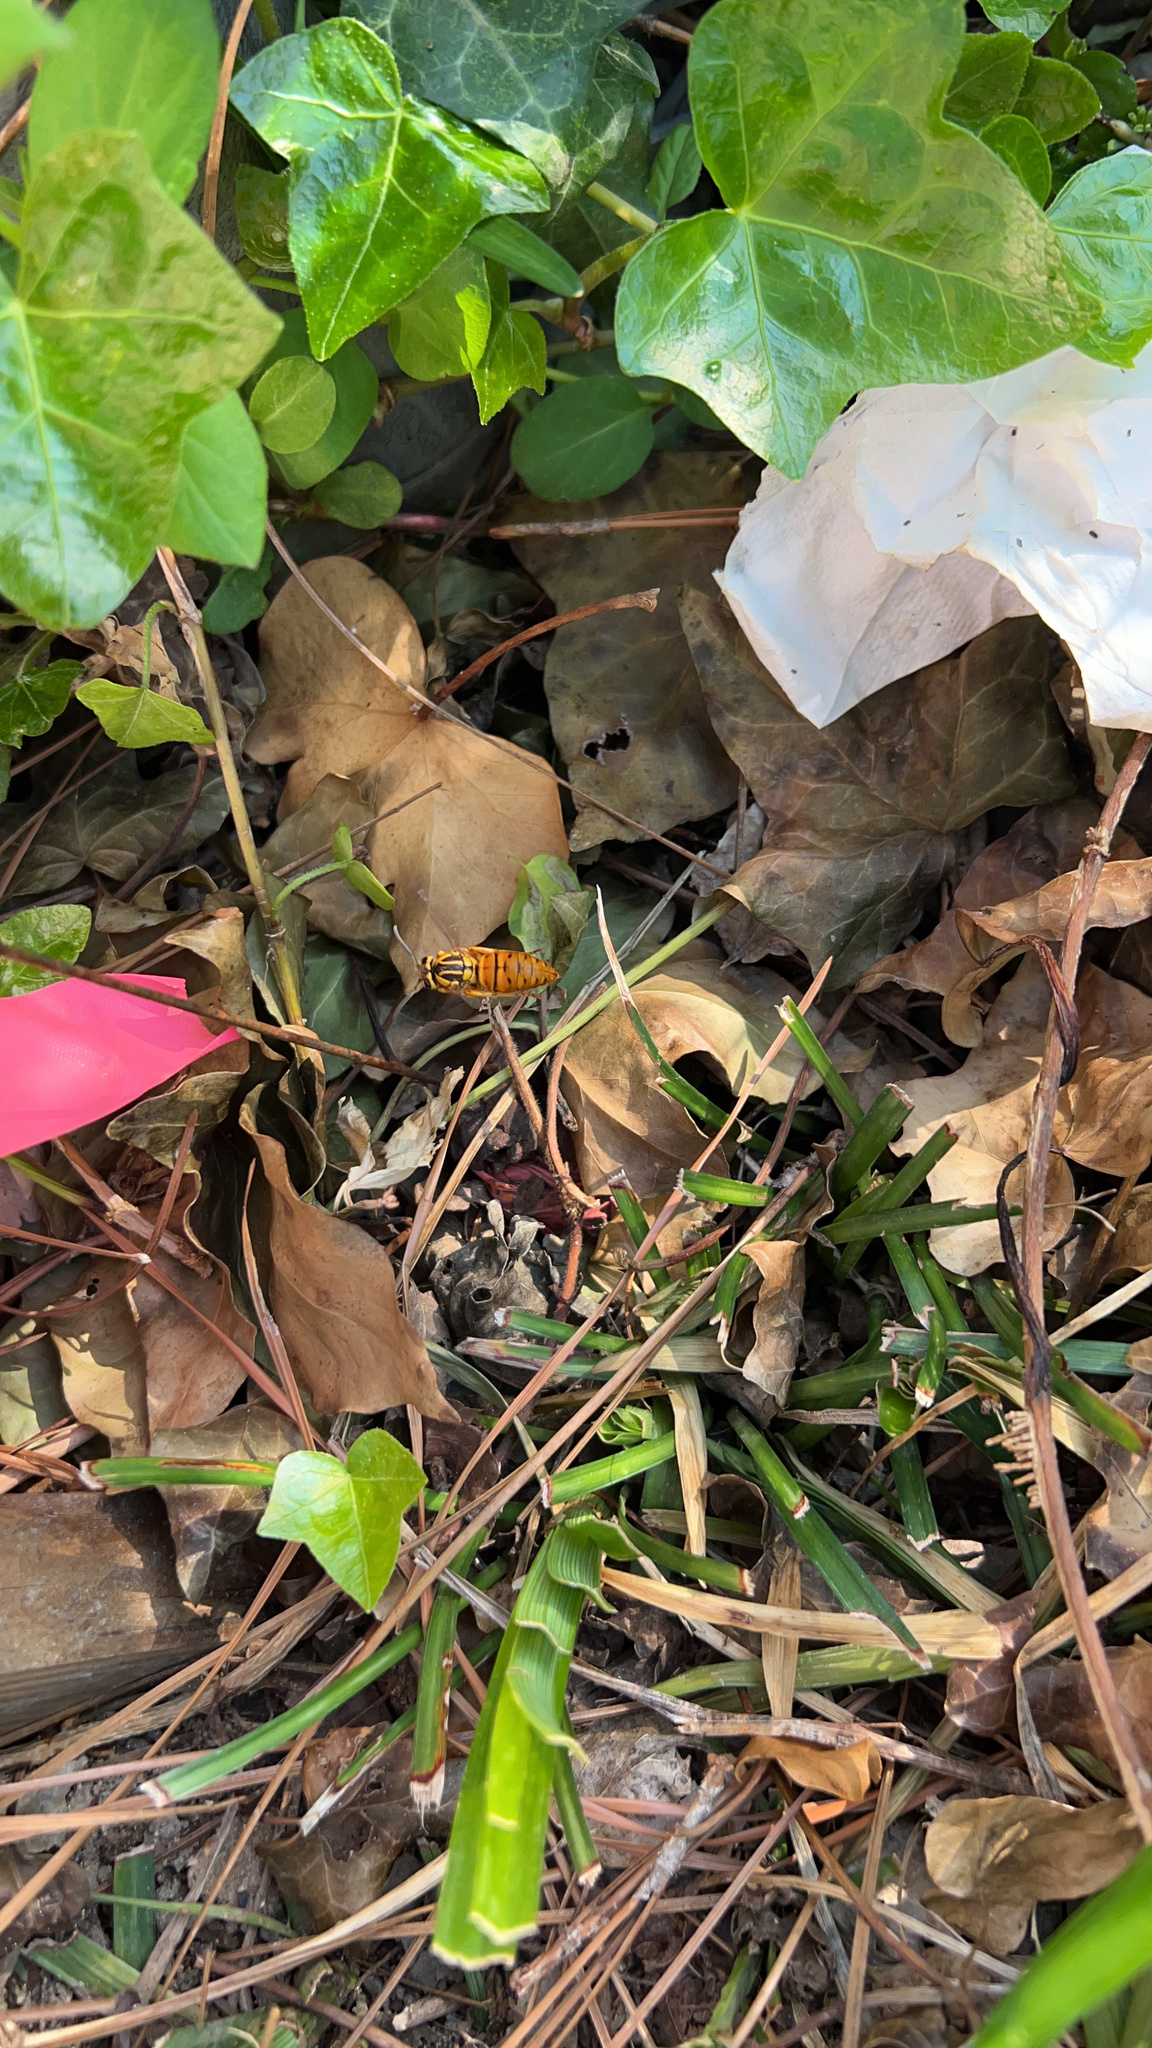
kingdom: Animalia
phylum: Arthropoda
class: Insecta
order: Hymenoptera
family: Vespidae
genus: Vespula
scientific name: Vespula squamosa
